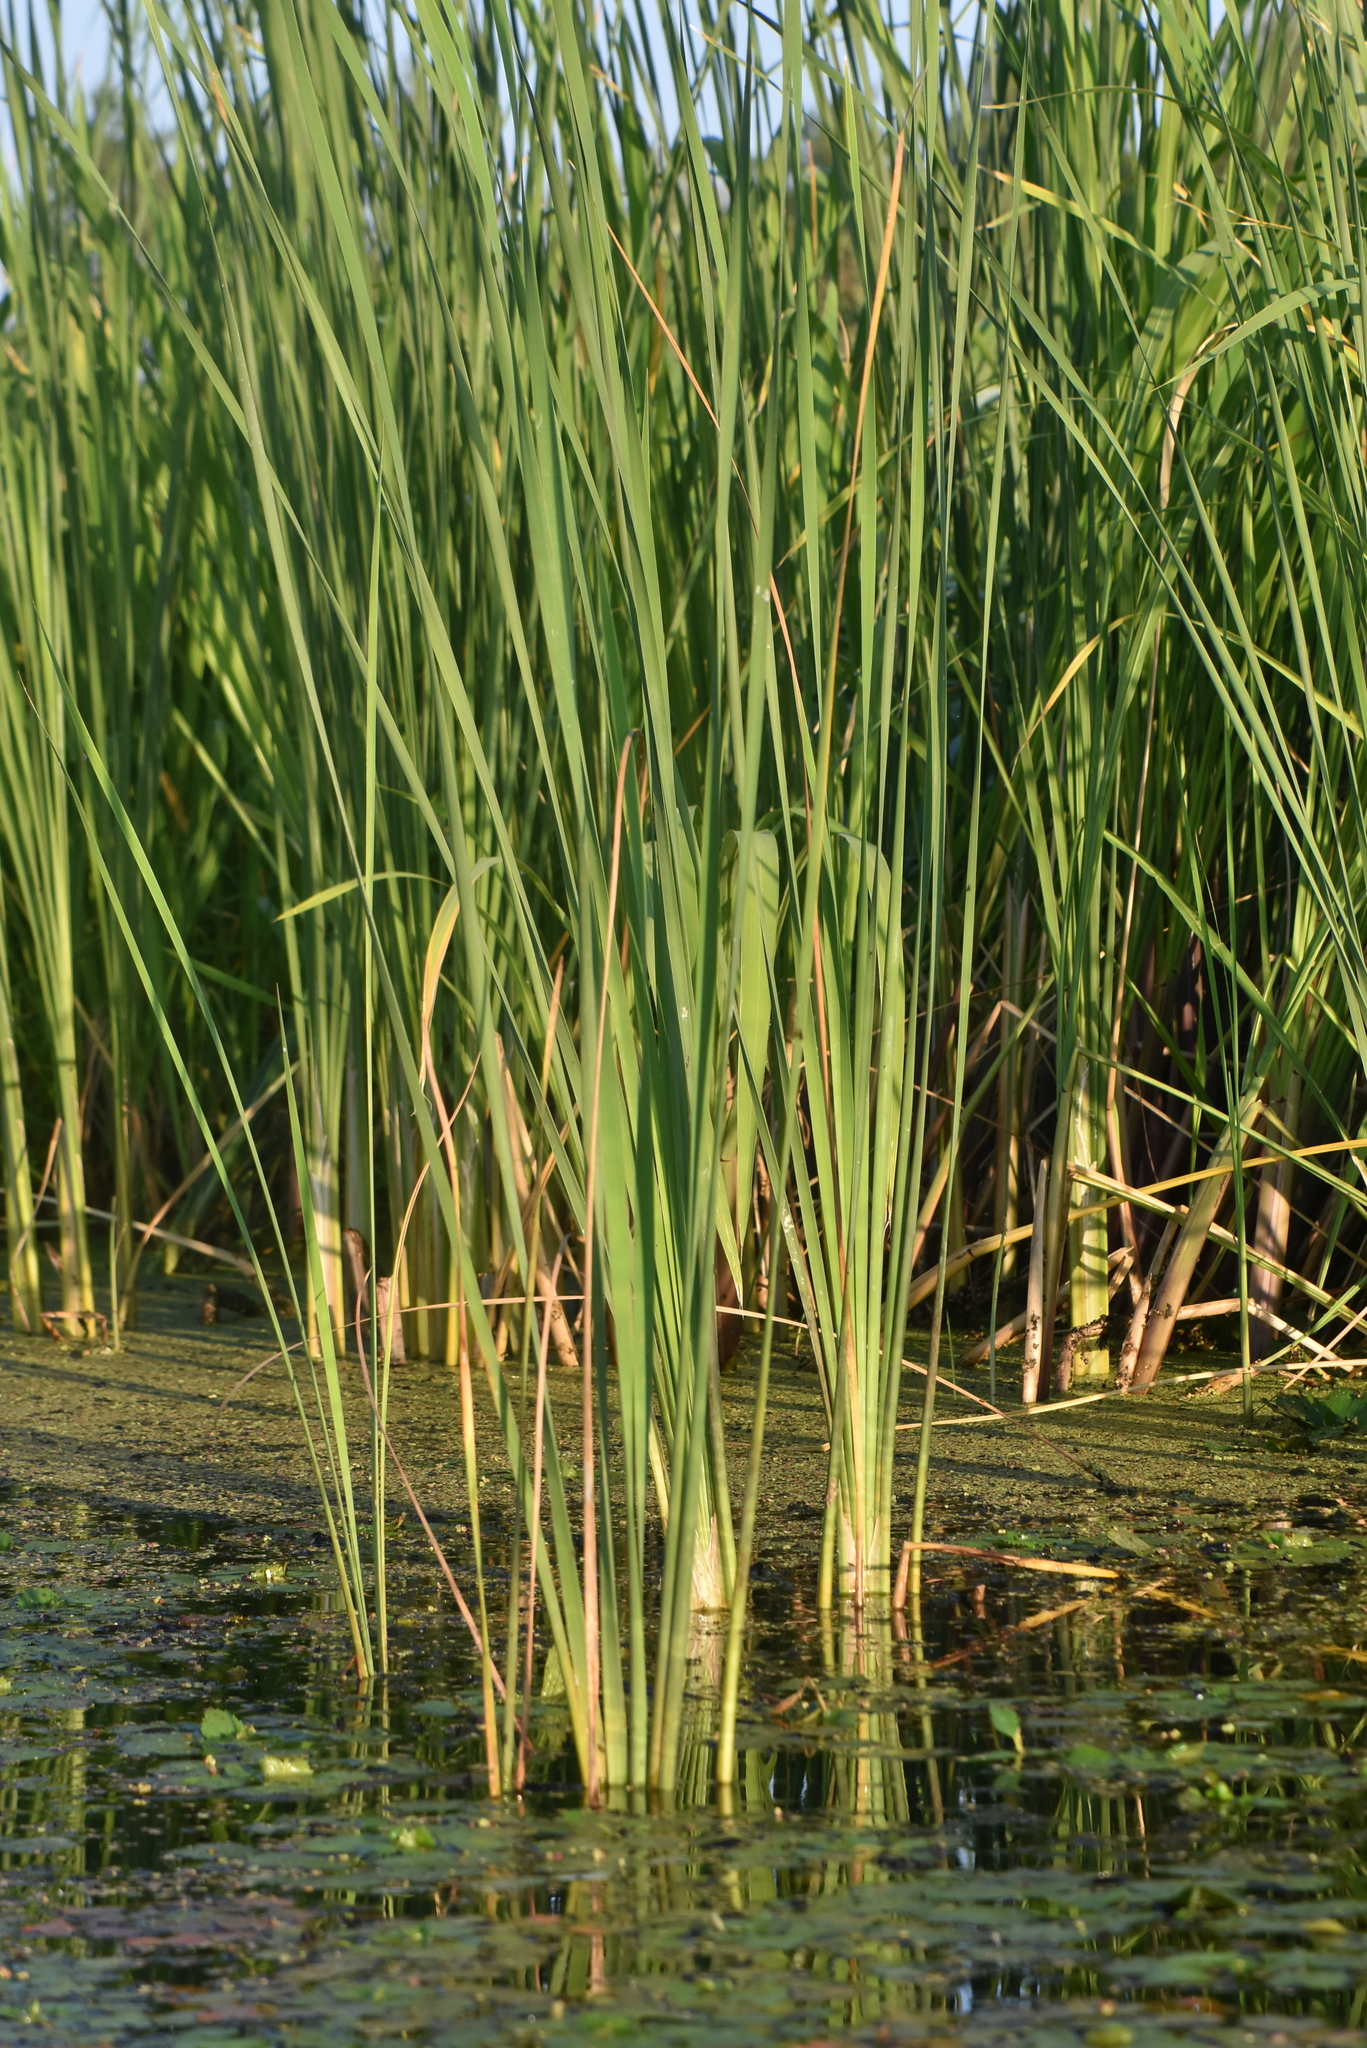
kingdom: Plantae
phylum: Tracheophyta
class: Liliopsida
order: Poales
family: Typhaceae
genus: Typha
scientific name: Typha angustifolia
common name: Lesser bulrush
